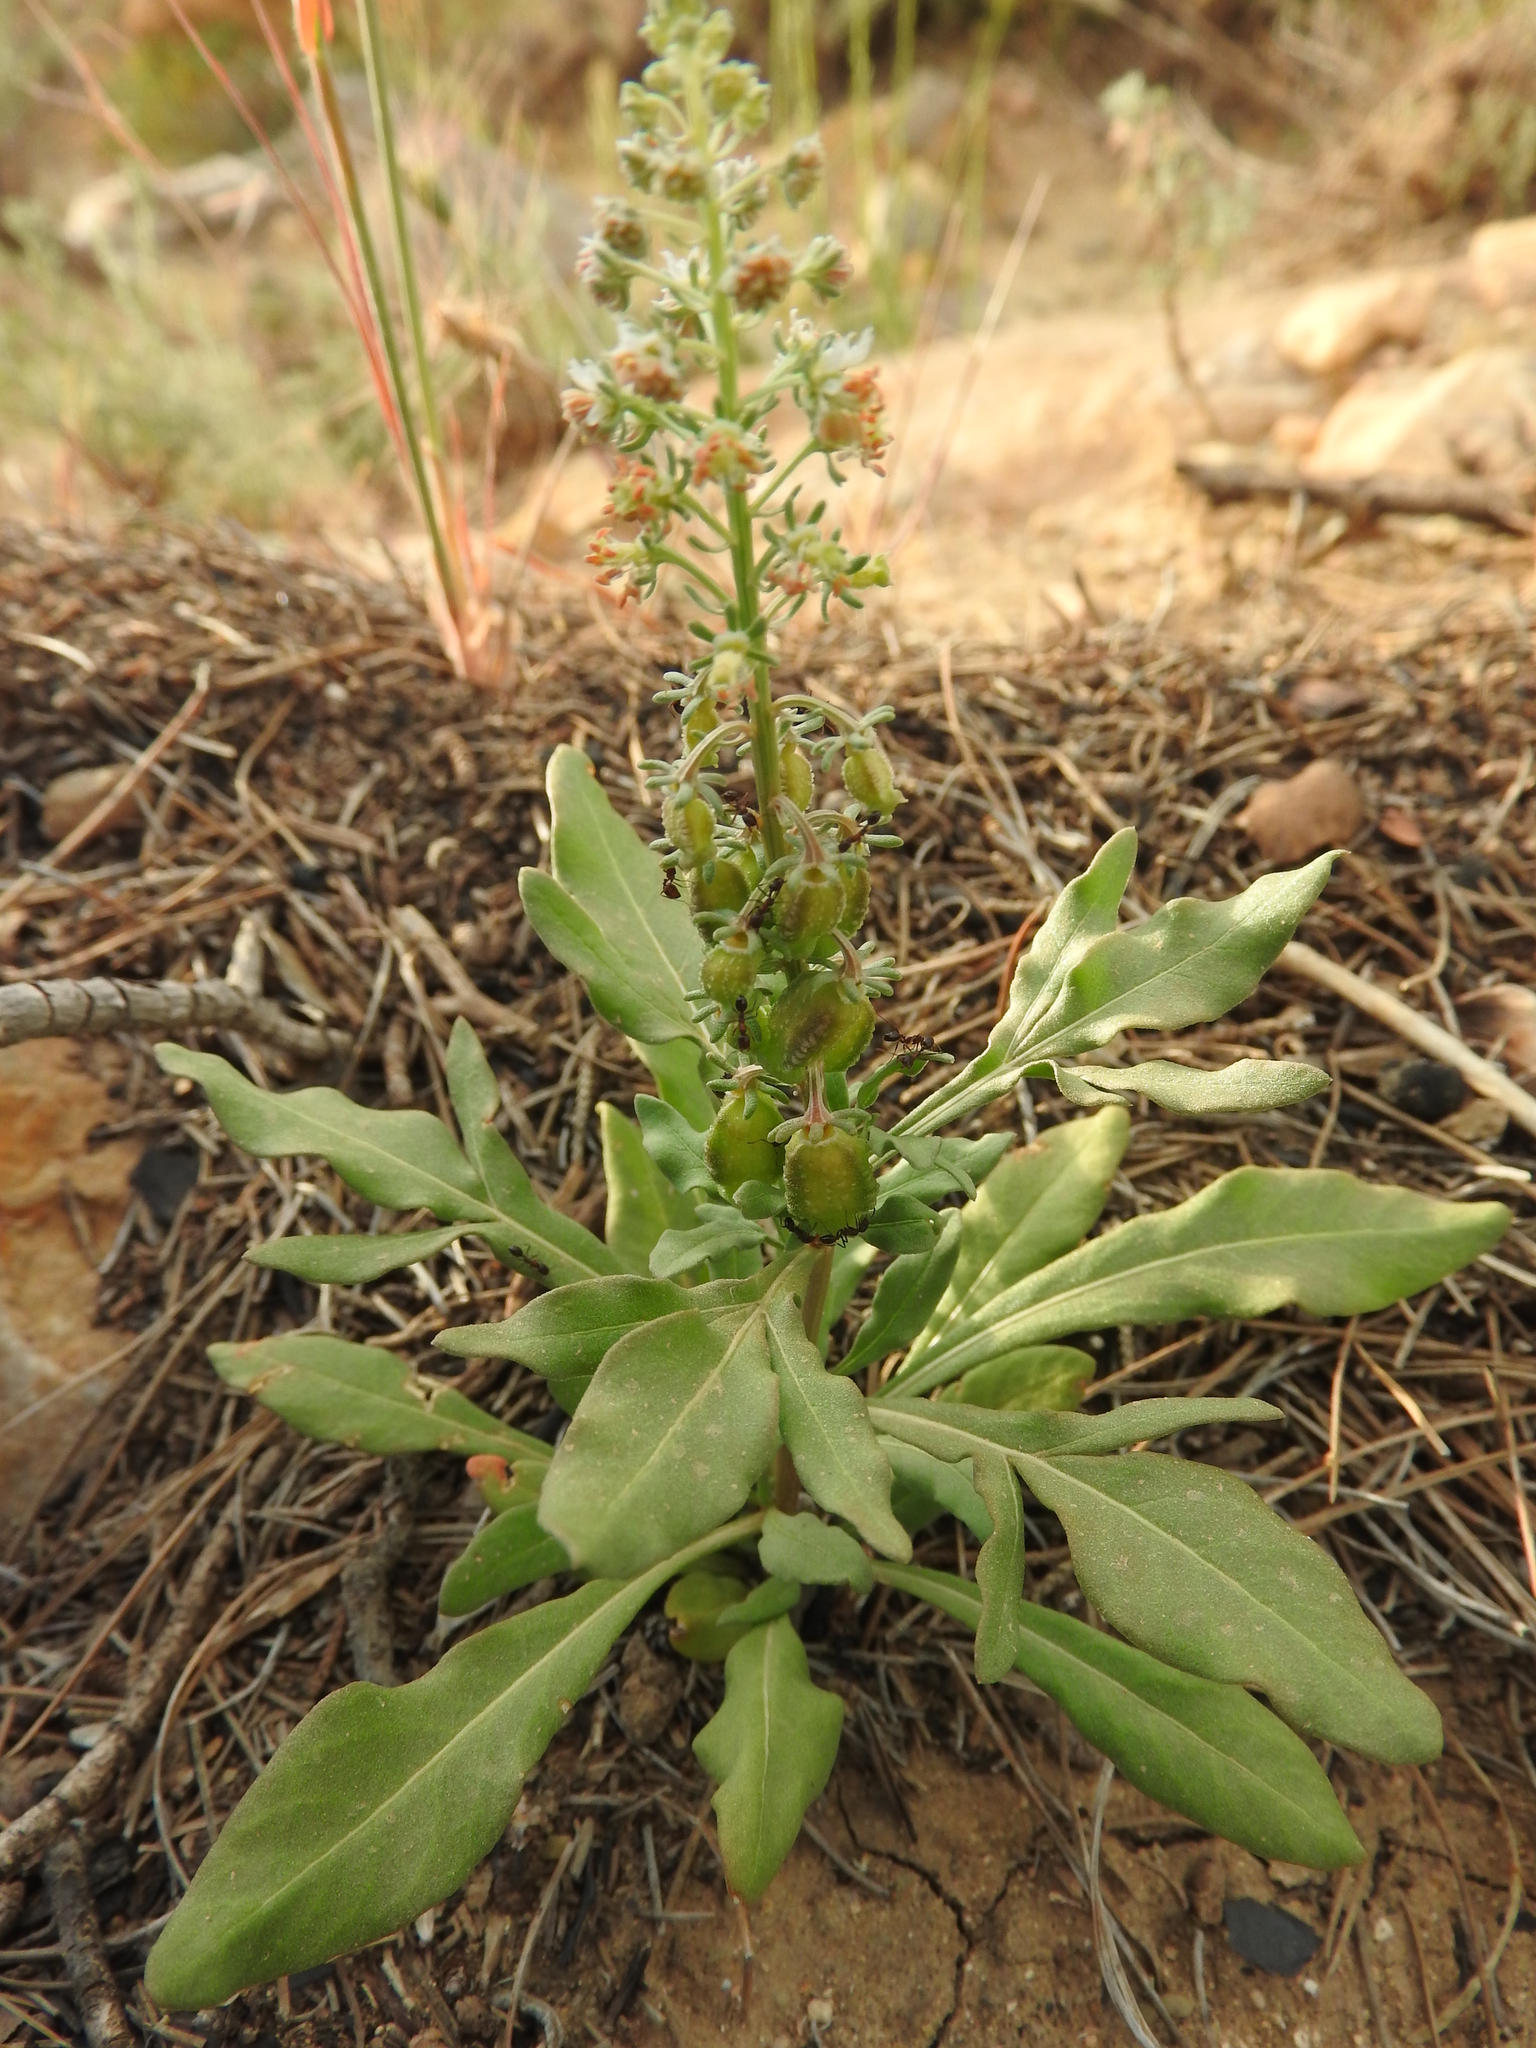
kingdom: Plantae
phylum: Tracheophyta
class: Magnoliopsida
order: Brassicales
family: Resedaceae
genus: Reseda
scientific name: Reseda duriaeana
